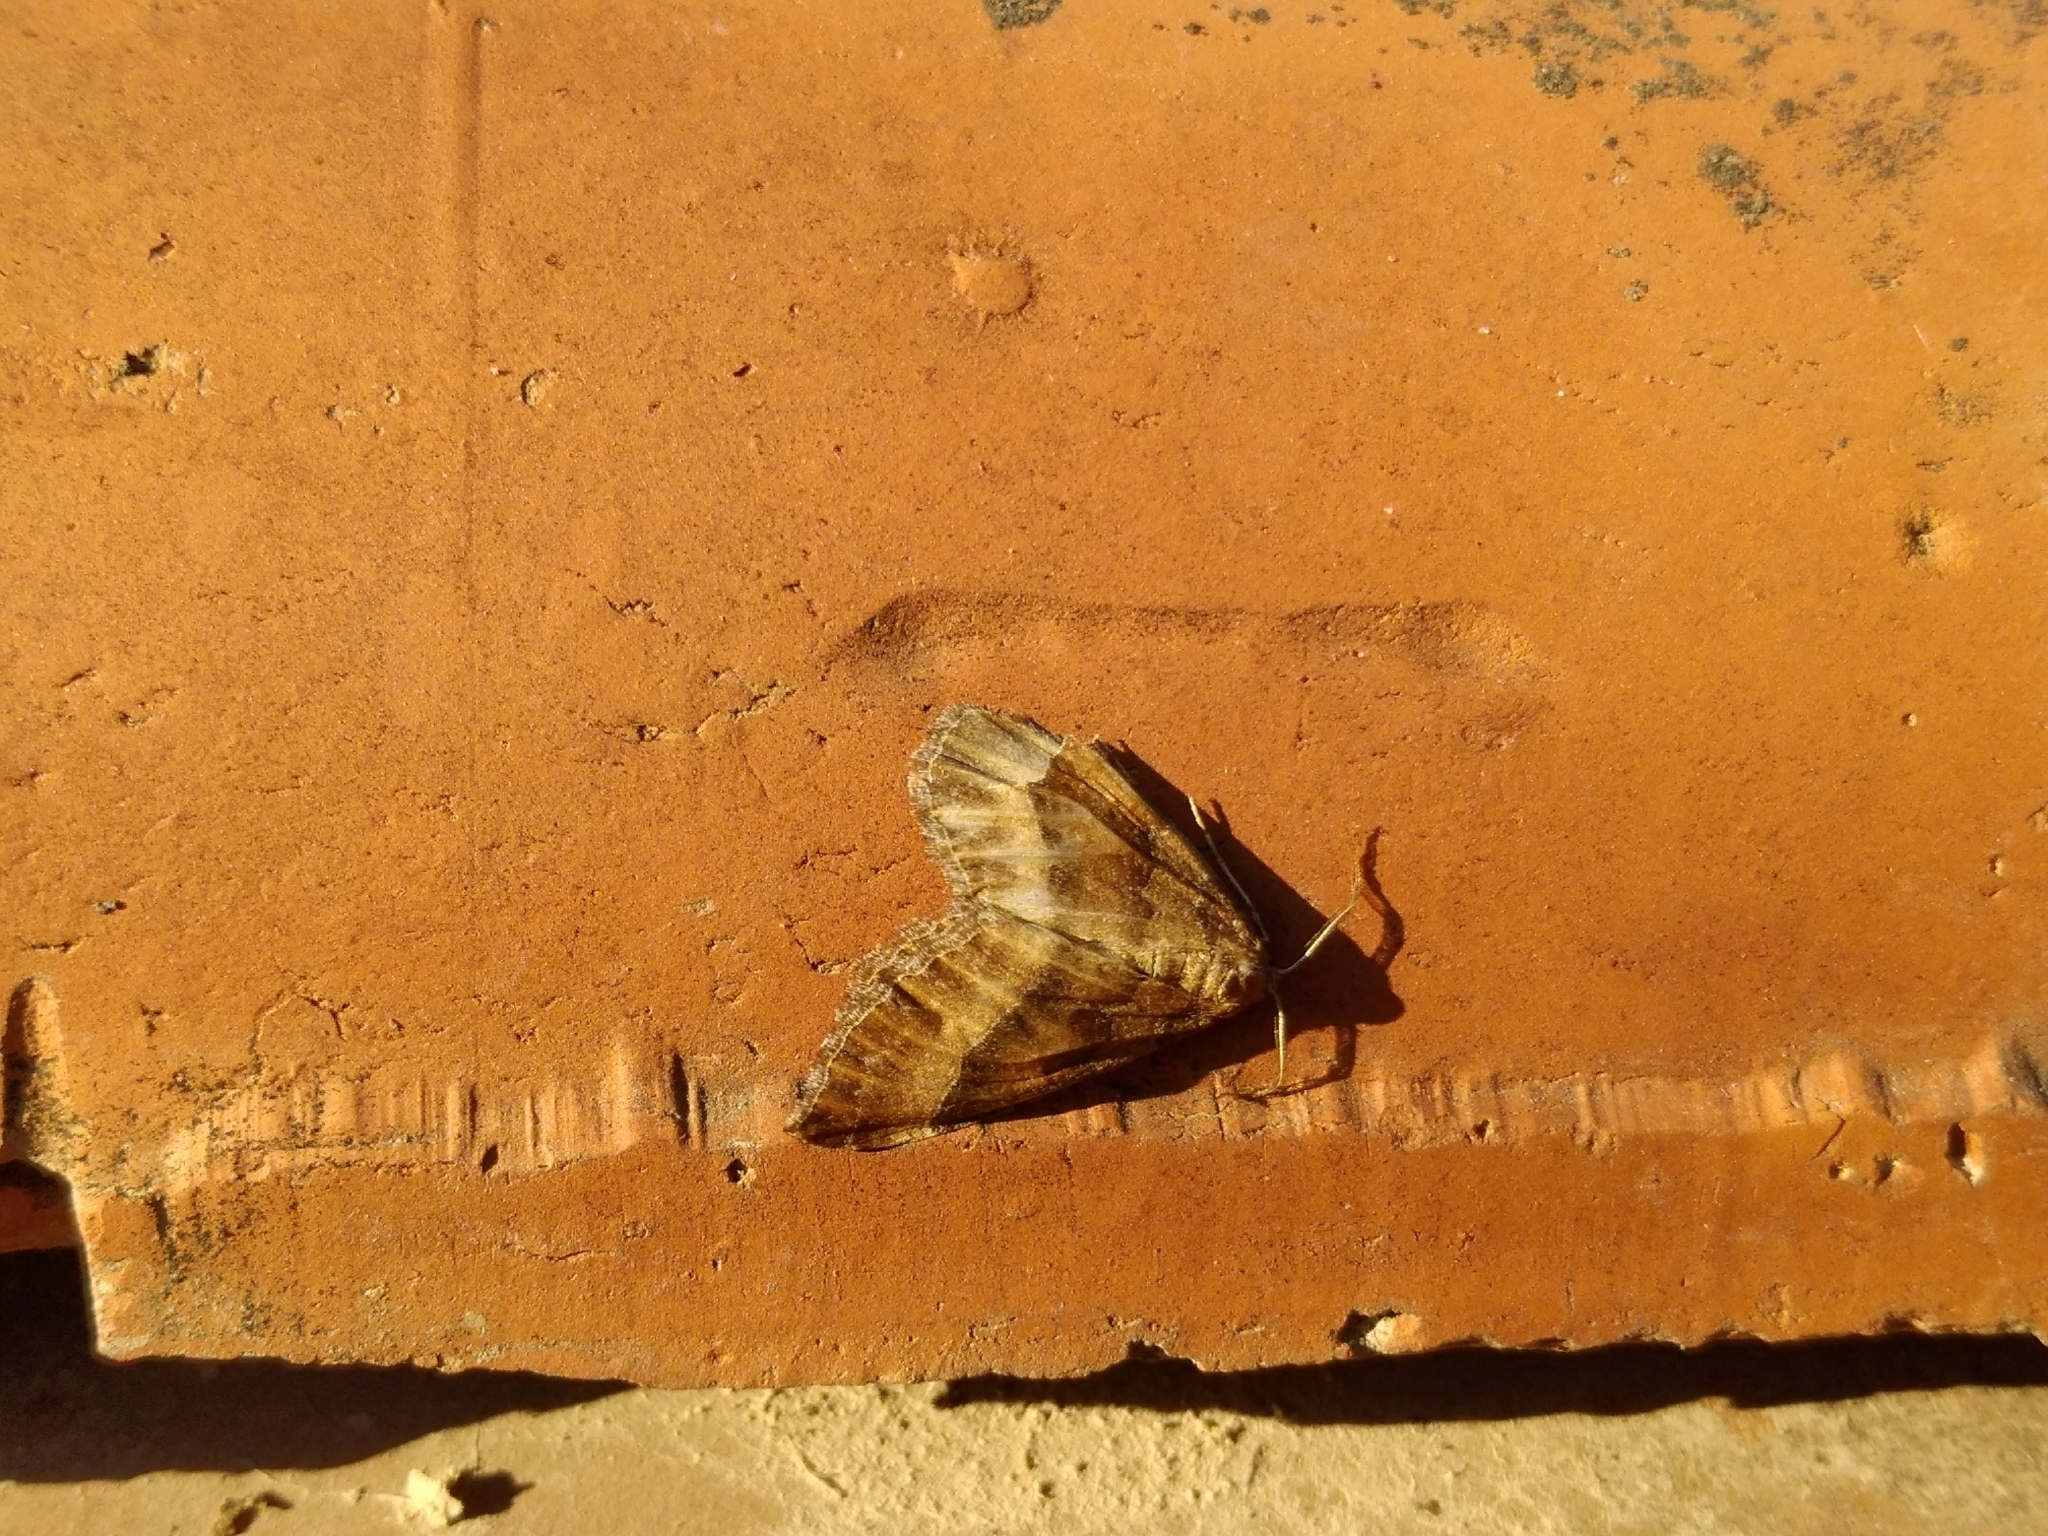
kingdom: Animalia
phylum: Arthropoda
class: Insecta
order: Lepidoptera
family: Geometridae
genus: Larentia
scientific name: Larentia clavaria
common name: Mallow
